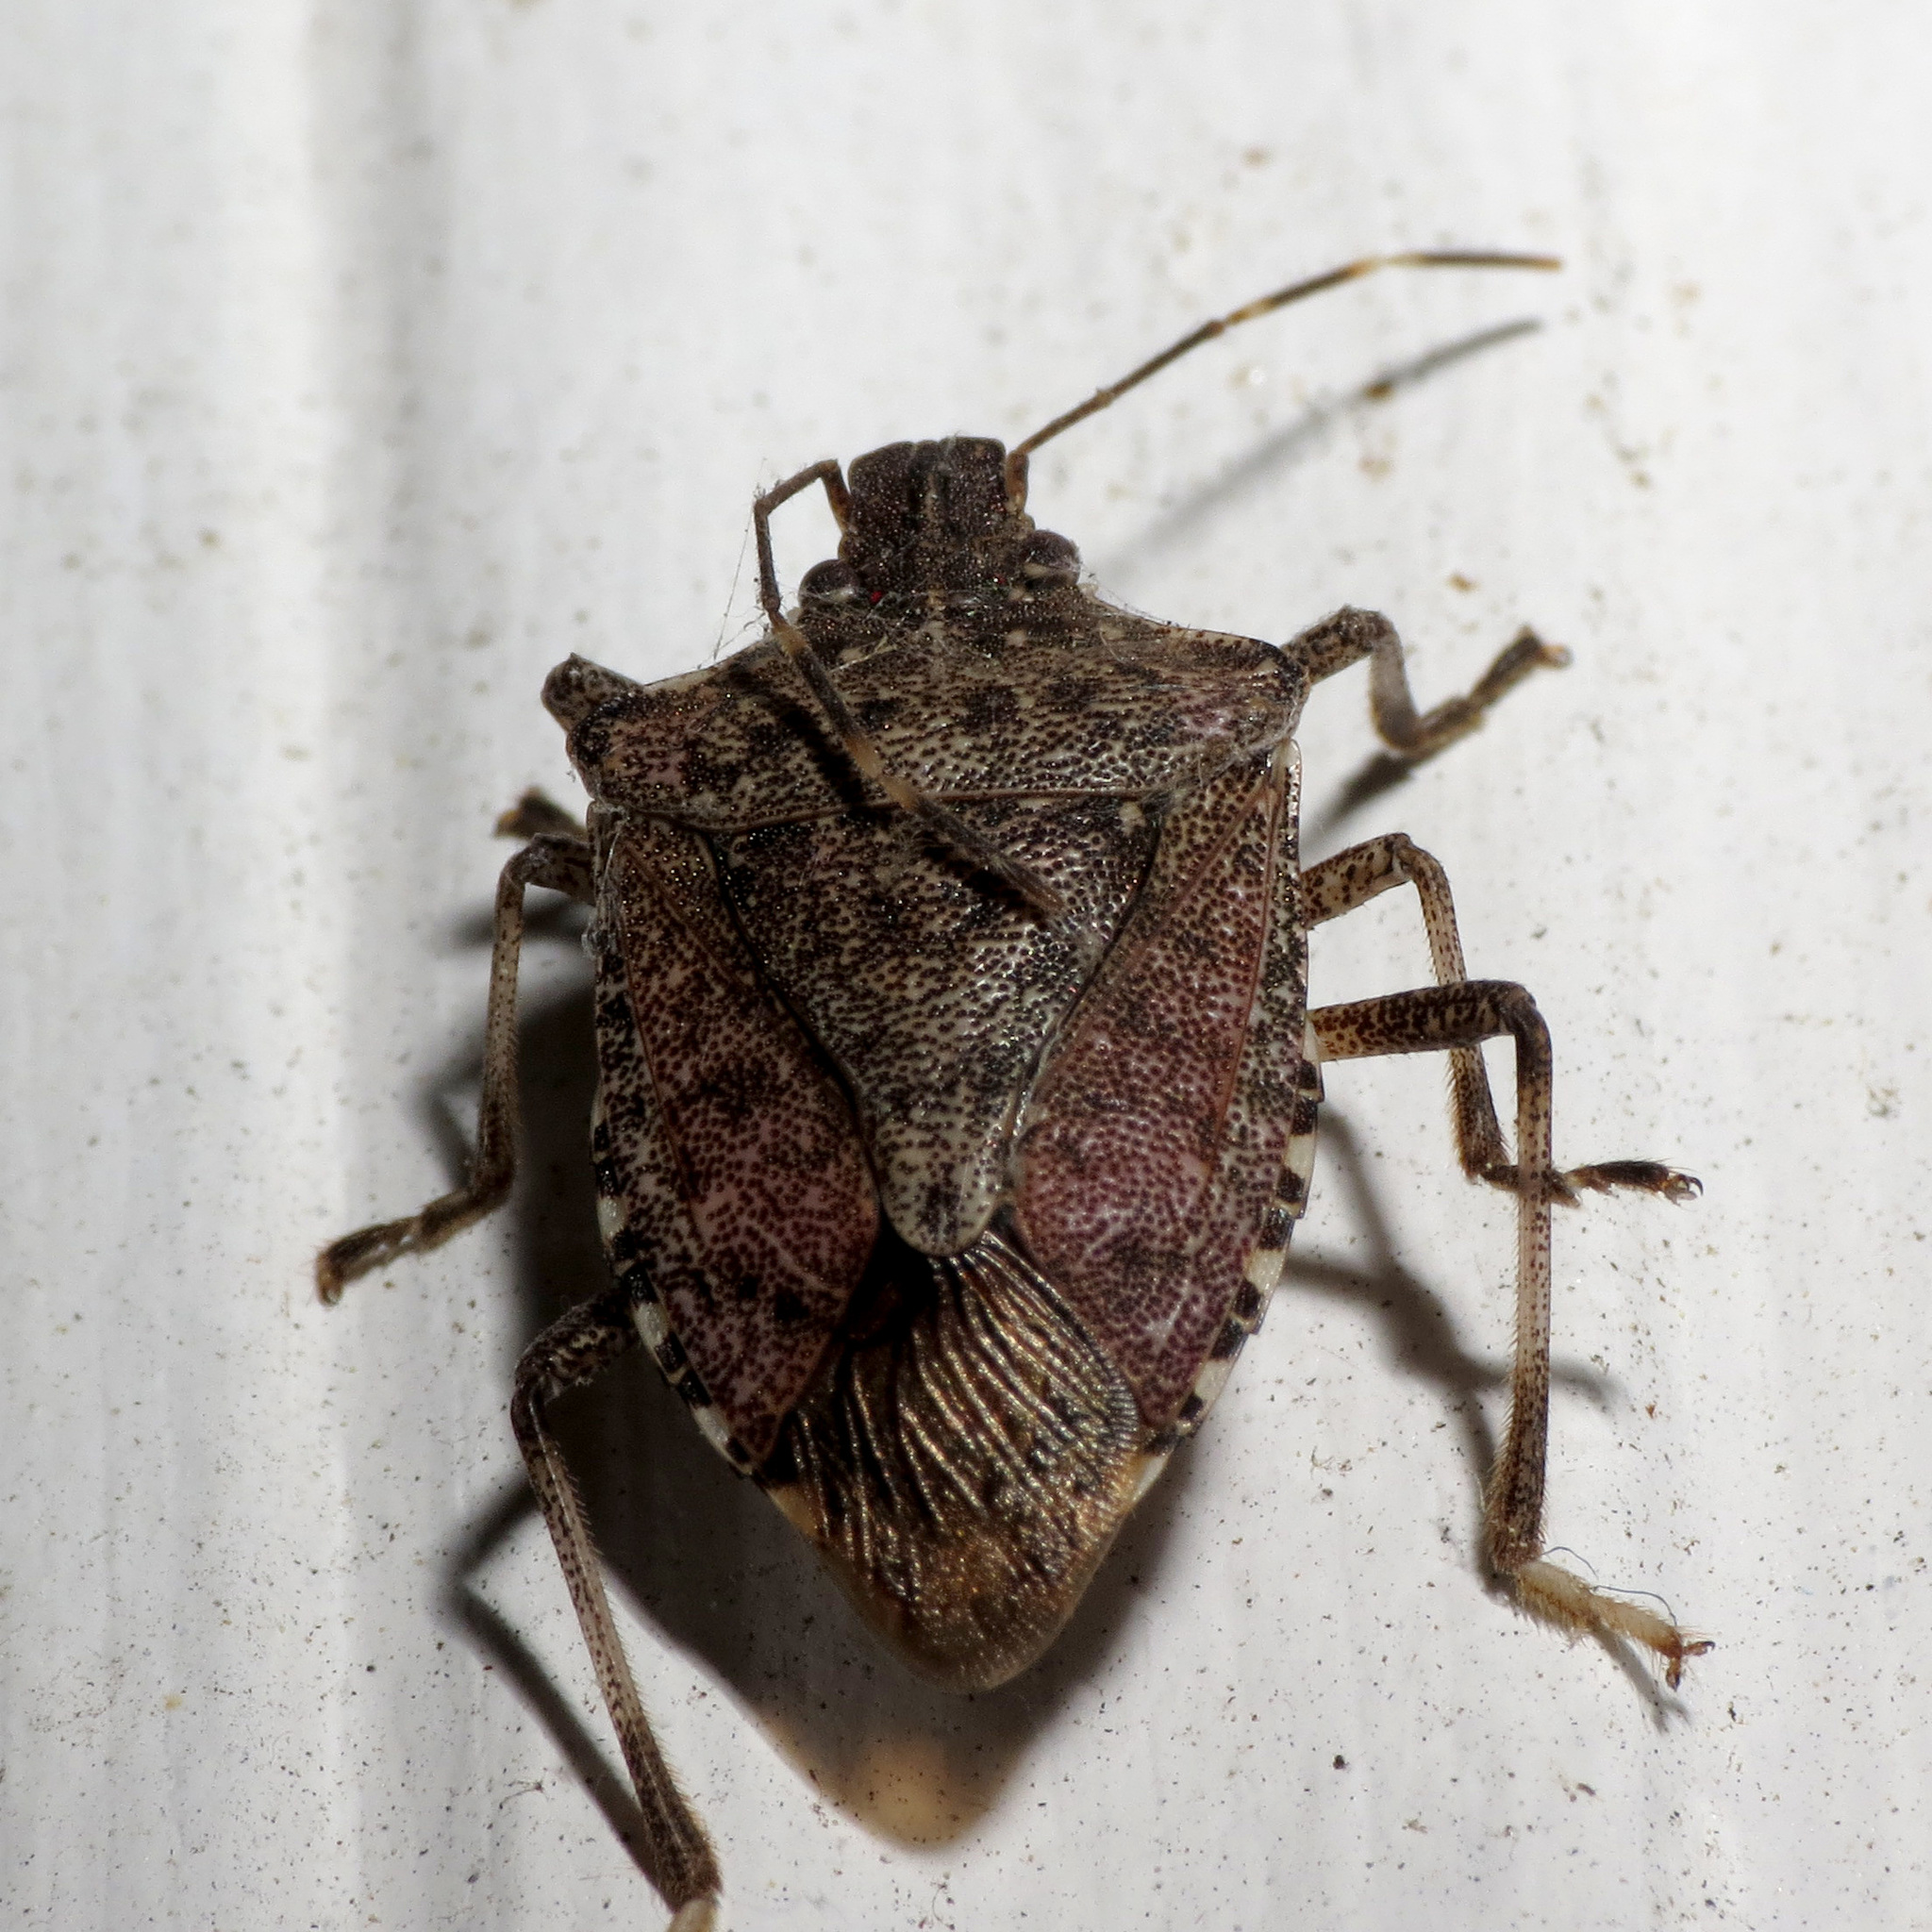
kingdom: Animalia
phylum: Arthropoda
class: Insecta
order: Hemiptera
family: Pentatomidae
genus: Halyomorpha
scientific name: Halyomorpha halys
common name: Brown marmorated stink bug
